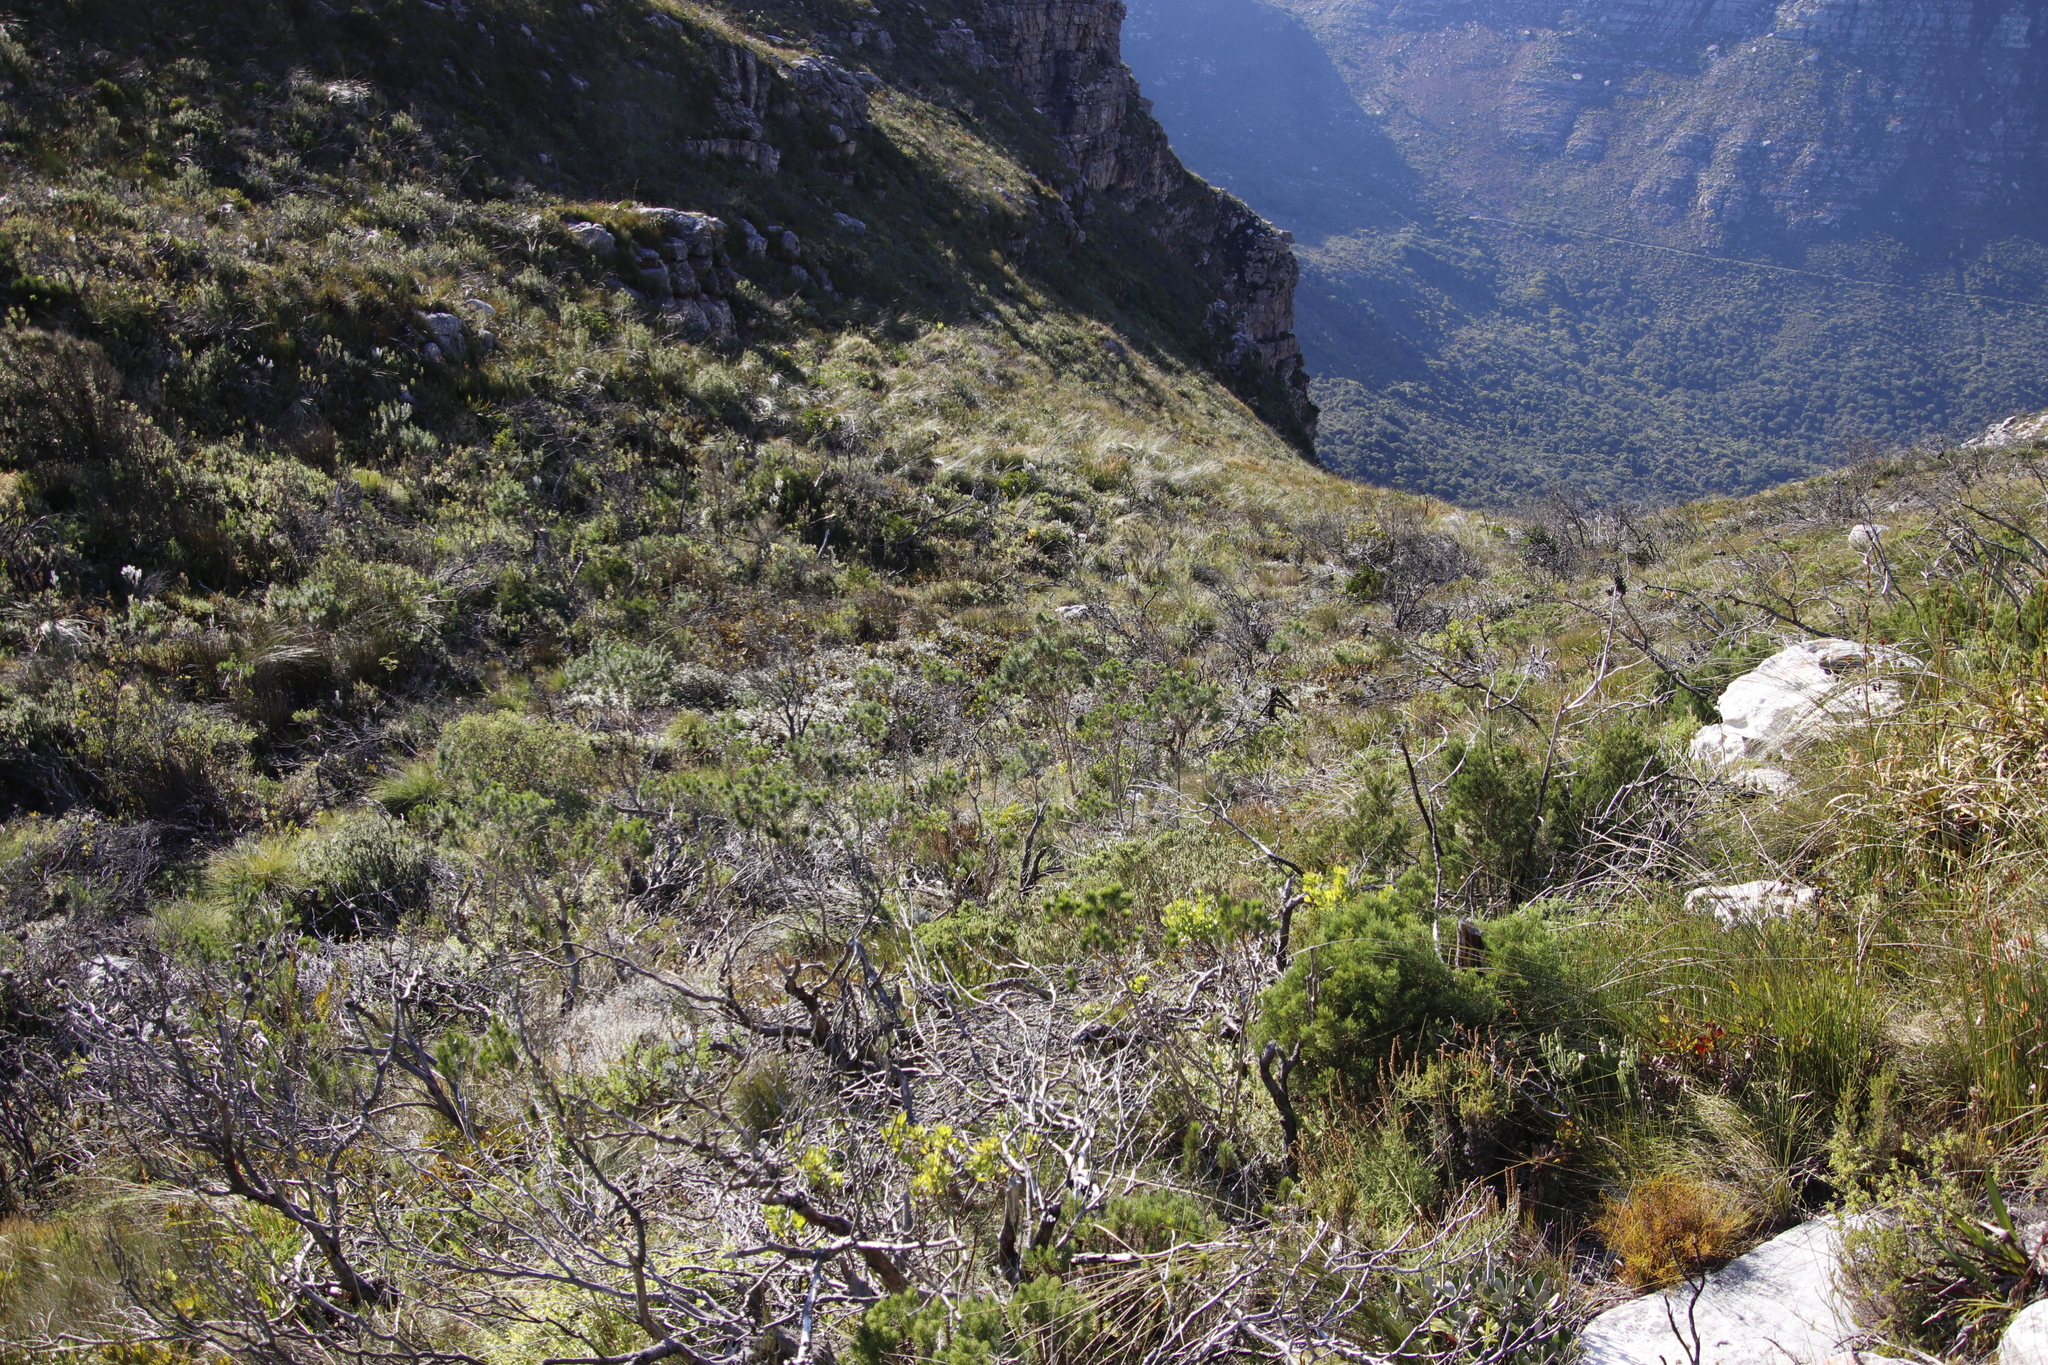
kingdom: Plantae
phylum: Tracheophyta
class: Magnoliopsida
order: Fabales
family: Fabaceae
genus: Psoralea
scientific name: Psoralea pinnata
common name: African scurfpea
